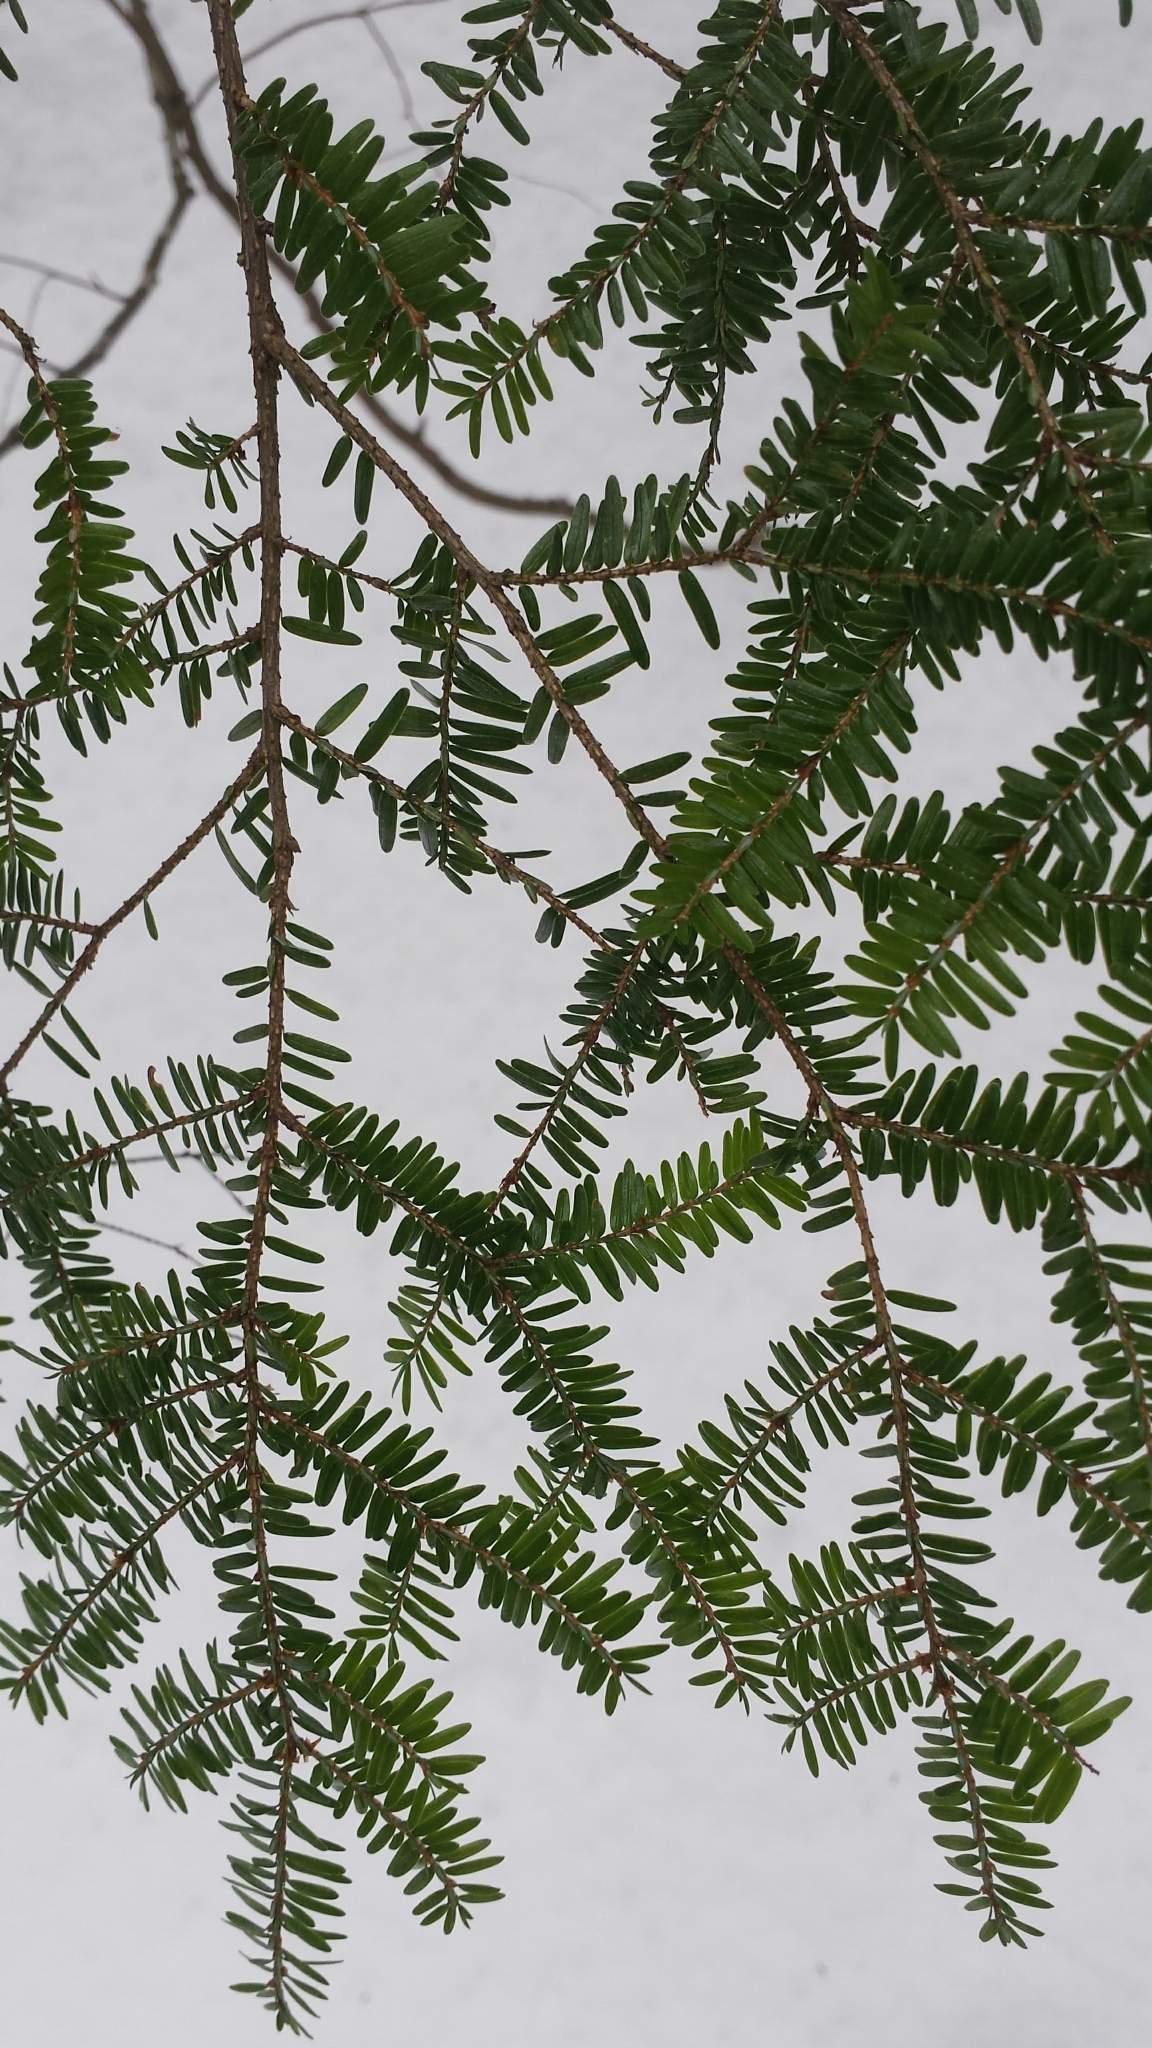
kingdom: Plantae
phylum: Tracheophyta
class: Pinopsida
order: Pinales
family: Pinaceae
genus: Tsuga
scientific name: Tsuga canadensis
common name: Eastern hemlock
